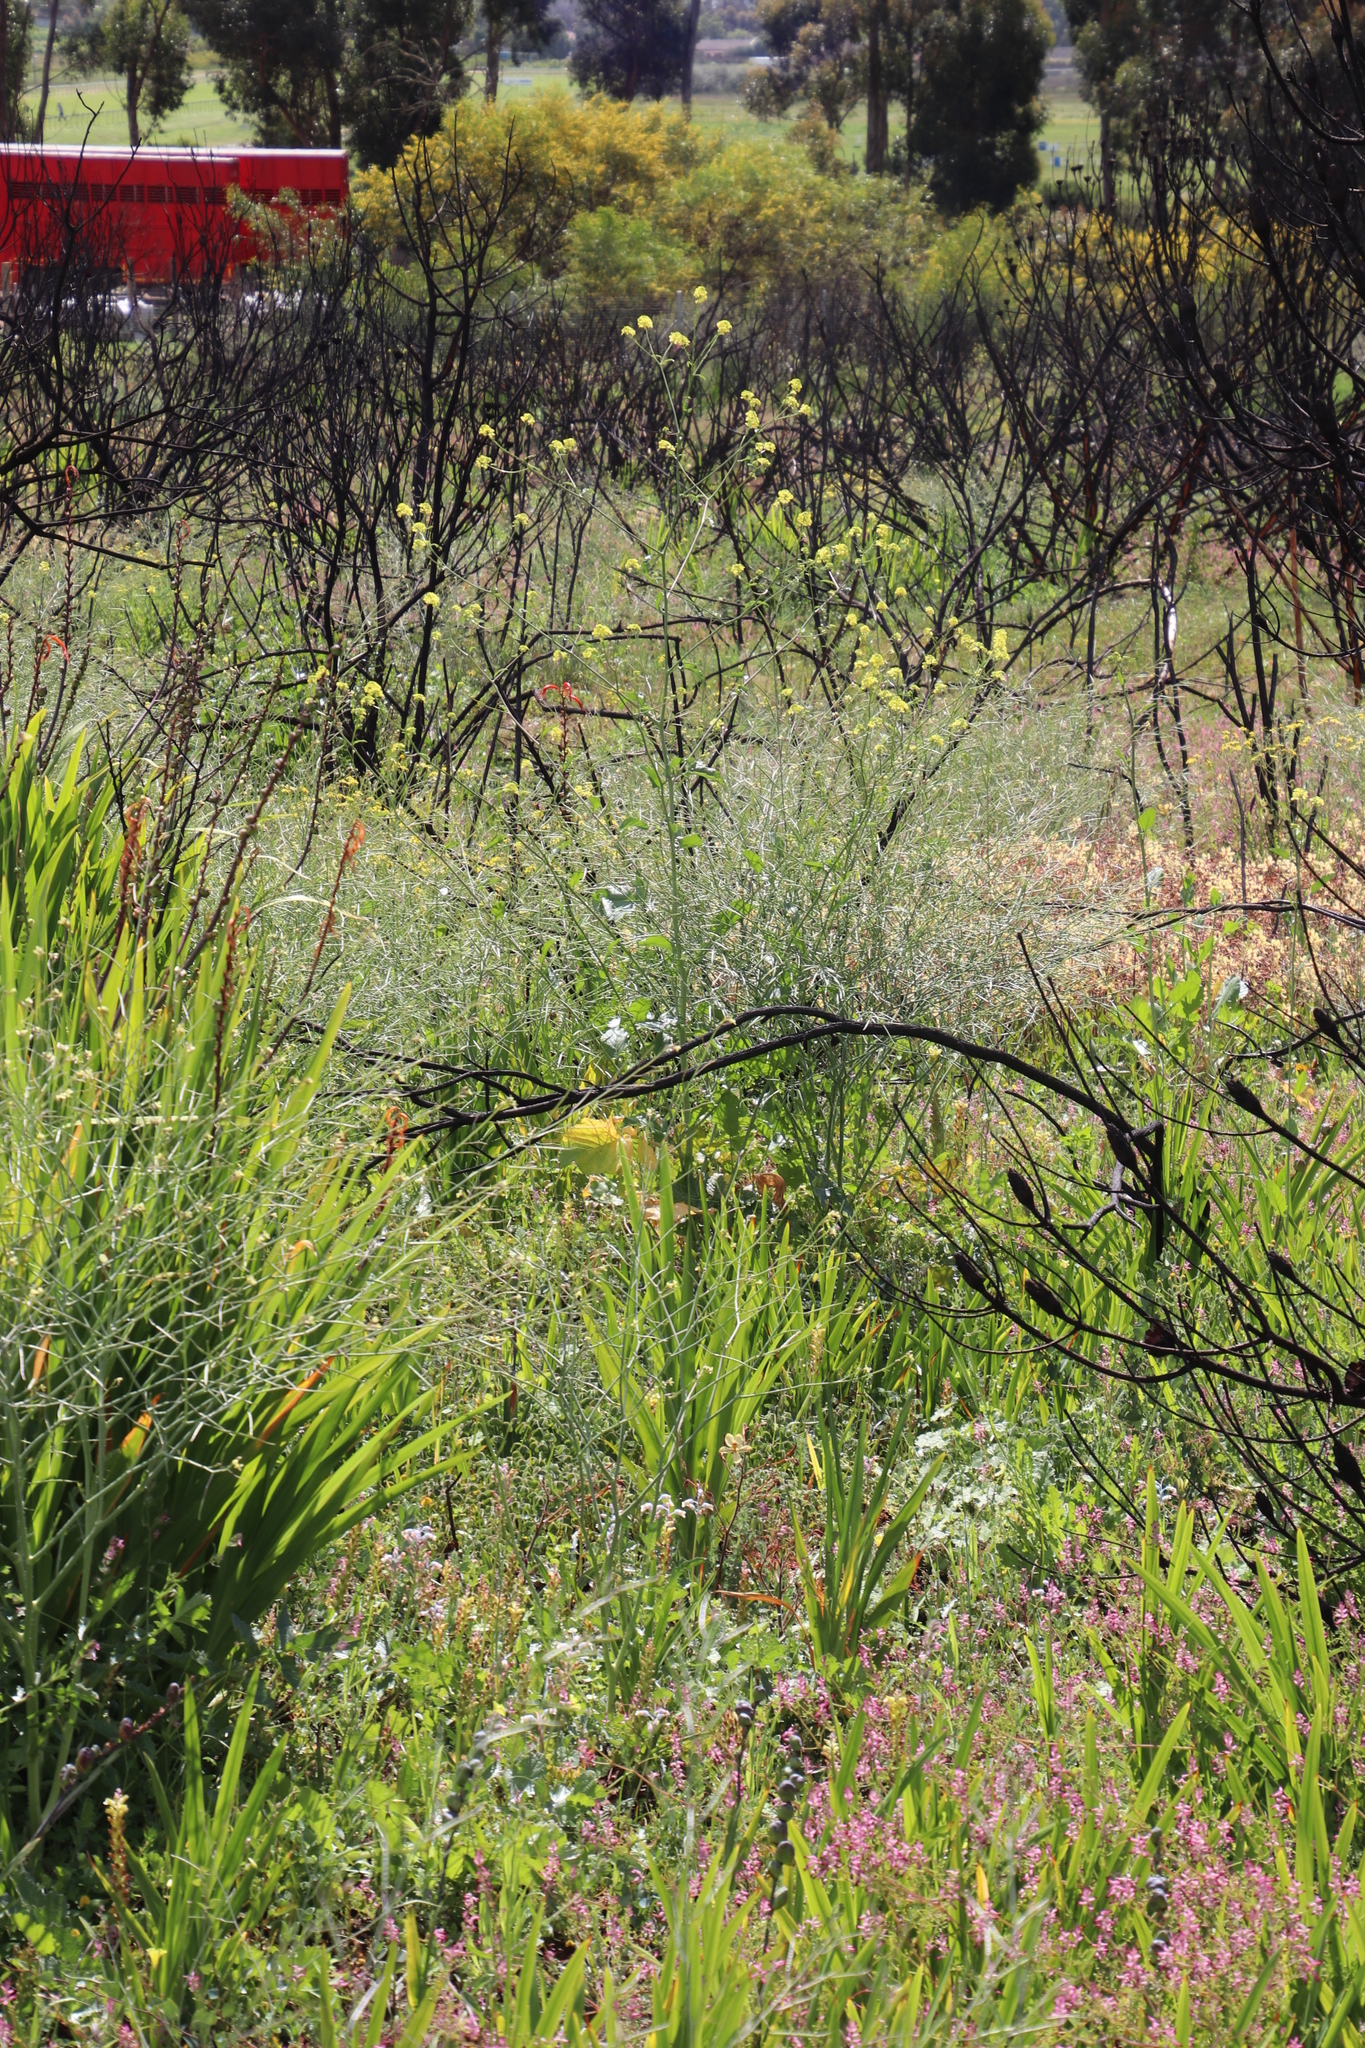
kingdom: Plantae
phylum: Tracheophyta
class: Magnoliopsida
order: Brassicales
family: Brassicaceae
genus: Rapistrum
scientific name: Rapistrum rugosum
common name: Annual bastardcabbage
